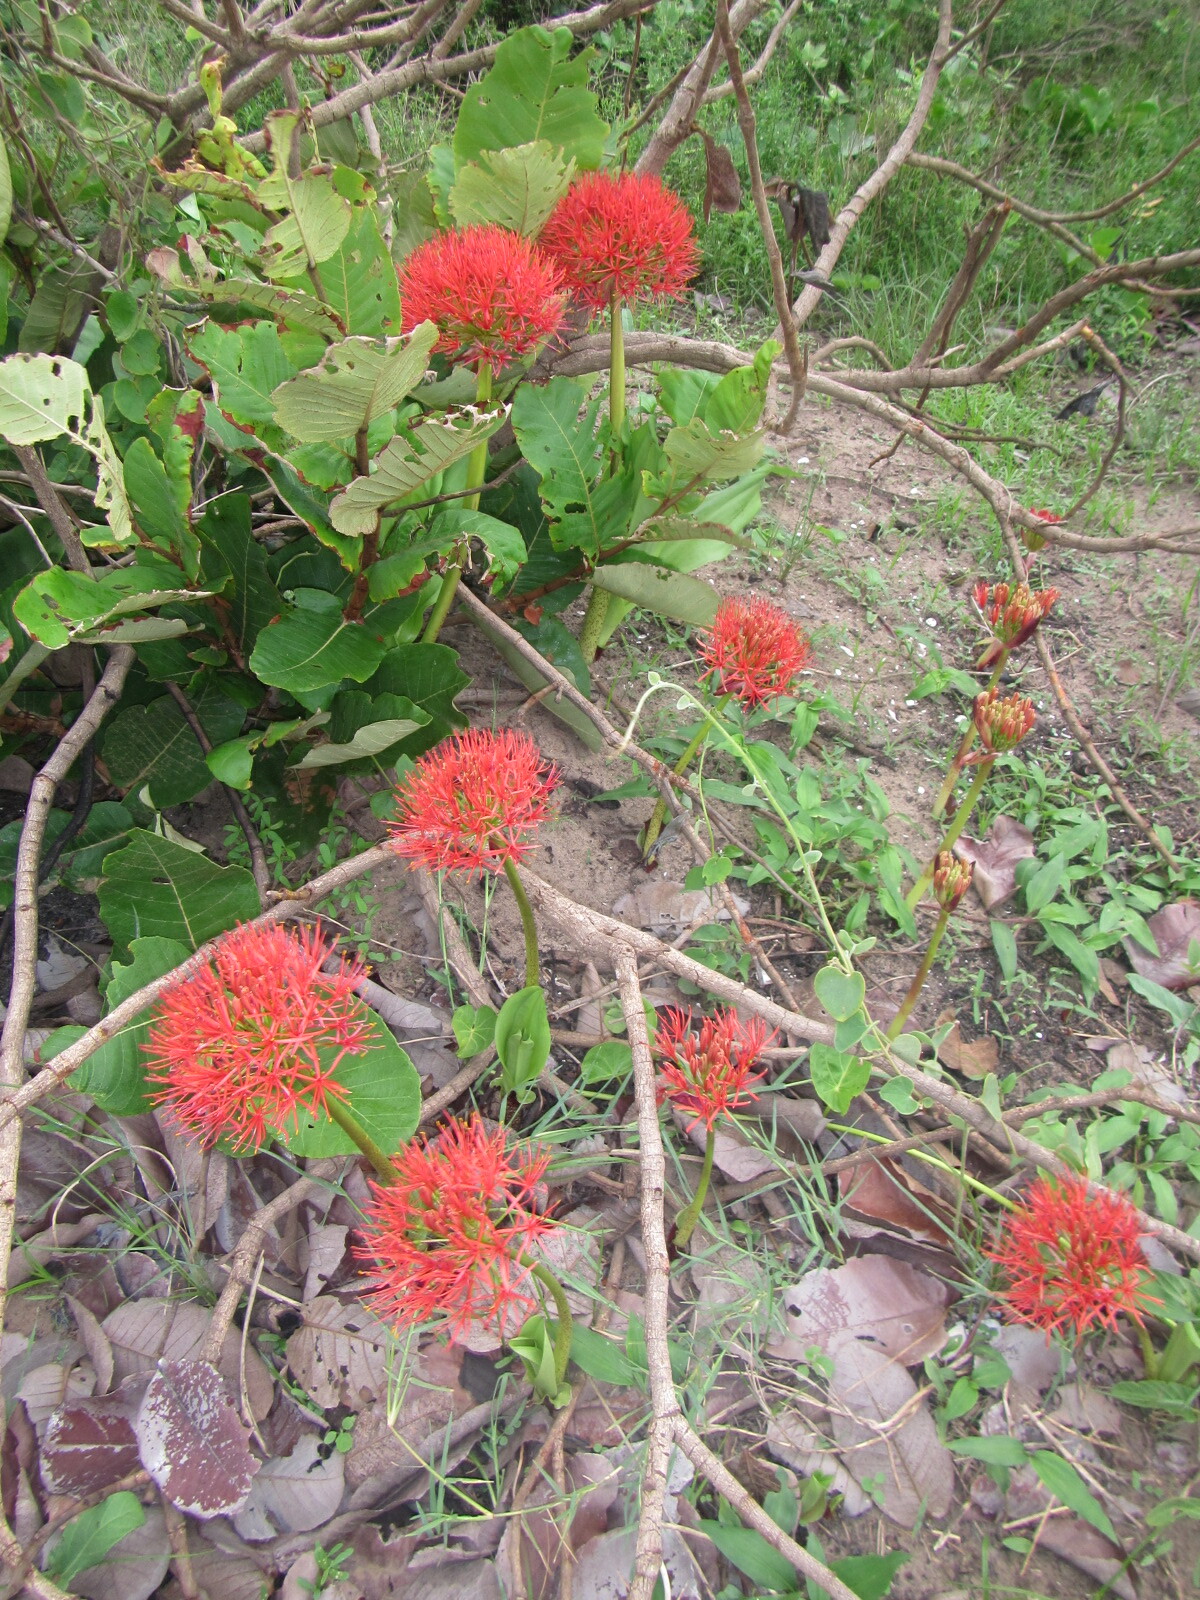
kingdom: Plantae
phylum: Tracheophyta
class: Liliopsida
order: Asparagales
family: Amaryllidaceae
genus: Scadoxus
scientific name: Scadoxus multiflorus
